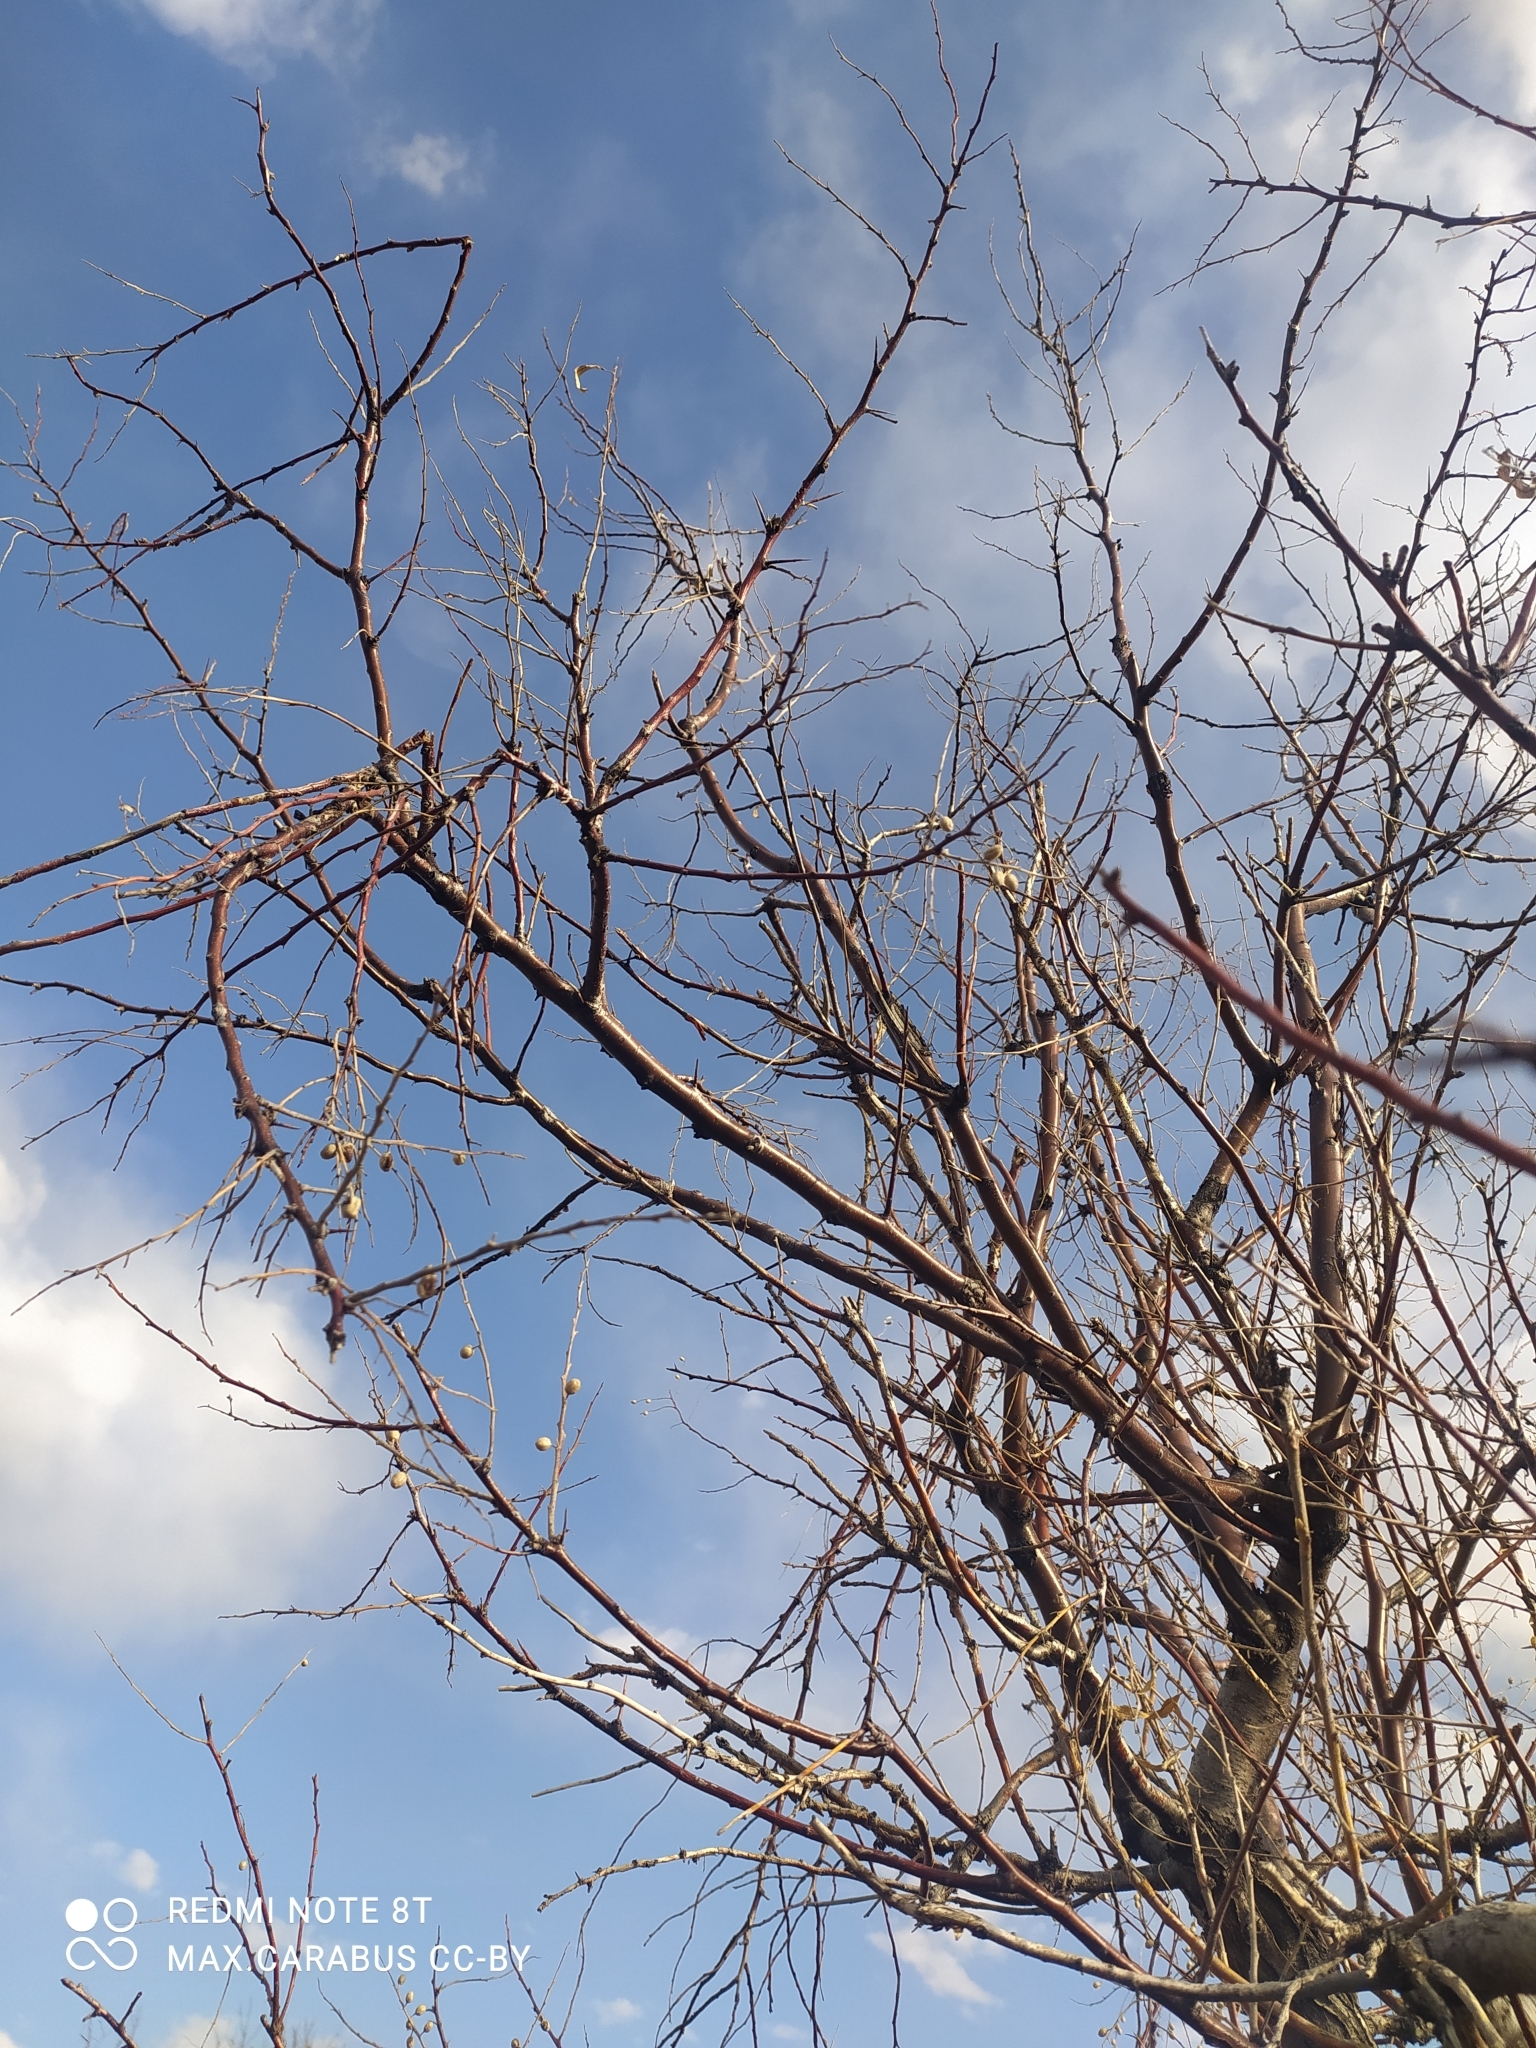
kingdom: Plantae
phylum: Tracheophyta
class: Magnoliopsida
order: Rosales
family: Elaeagnaceae
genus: Elaeagnus
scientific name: Elaeagnus angustifolia
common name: Russian olive
